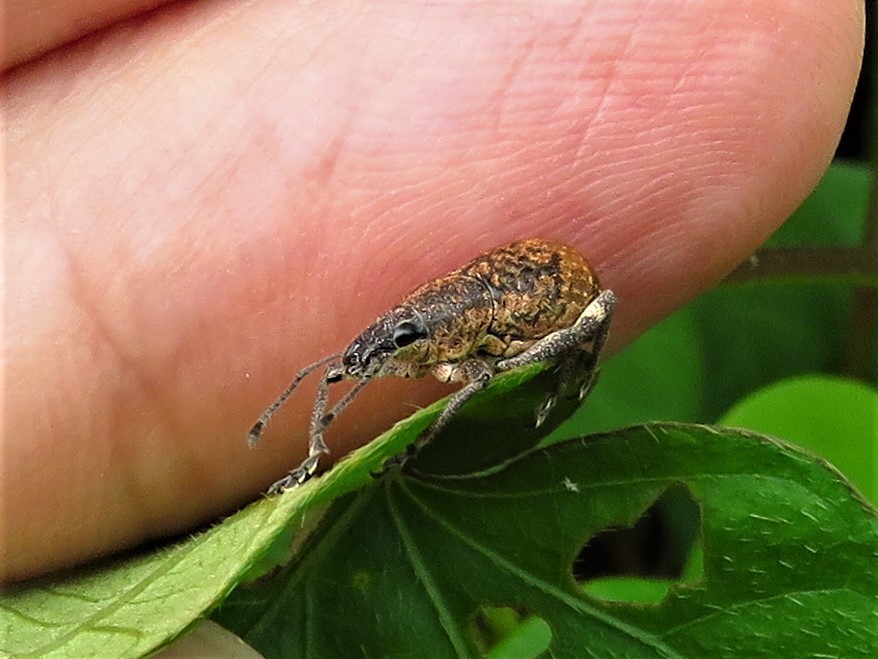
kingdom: Animalia
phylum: Arthropoda
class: Insecta
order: Coleoptera
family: Curculionidae
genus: Epicaerus
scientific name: Epicaerus mexicanus
